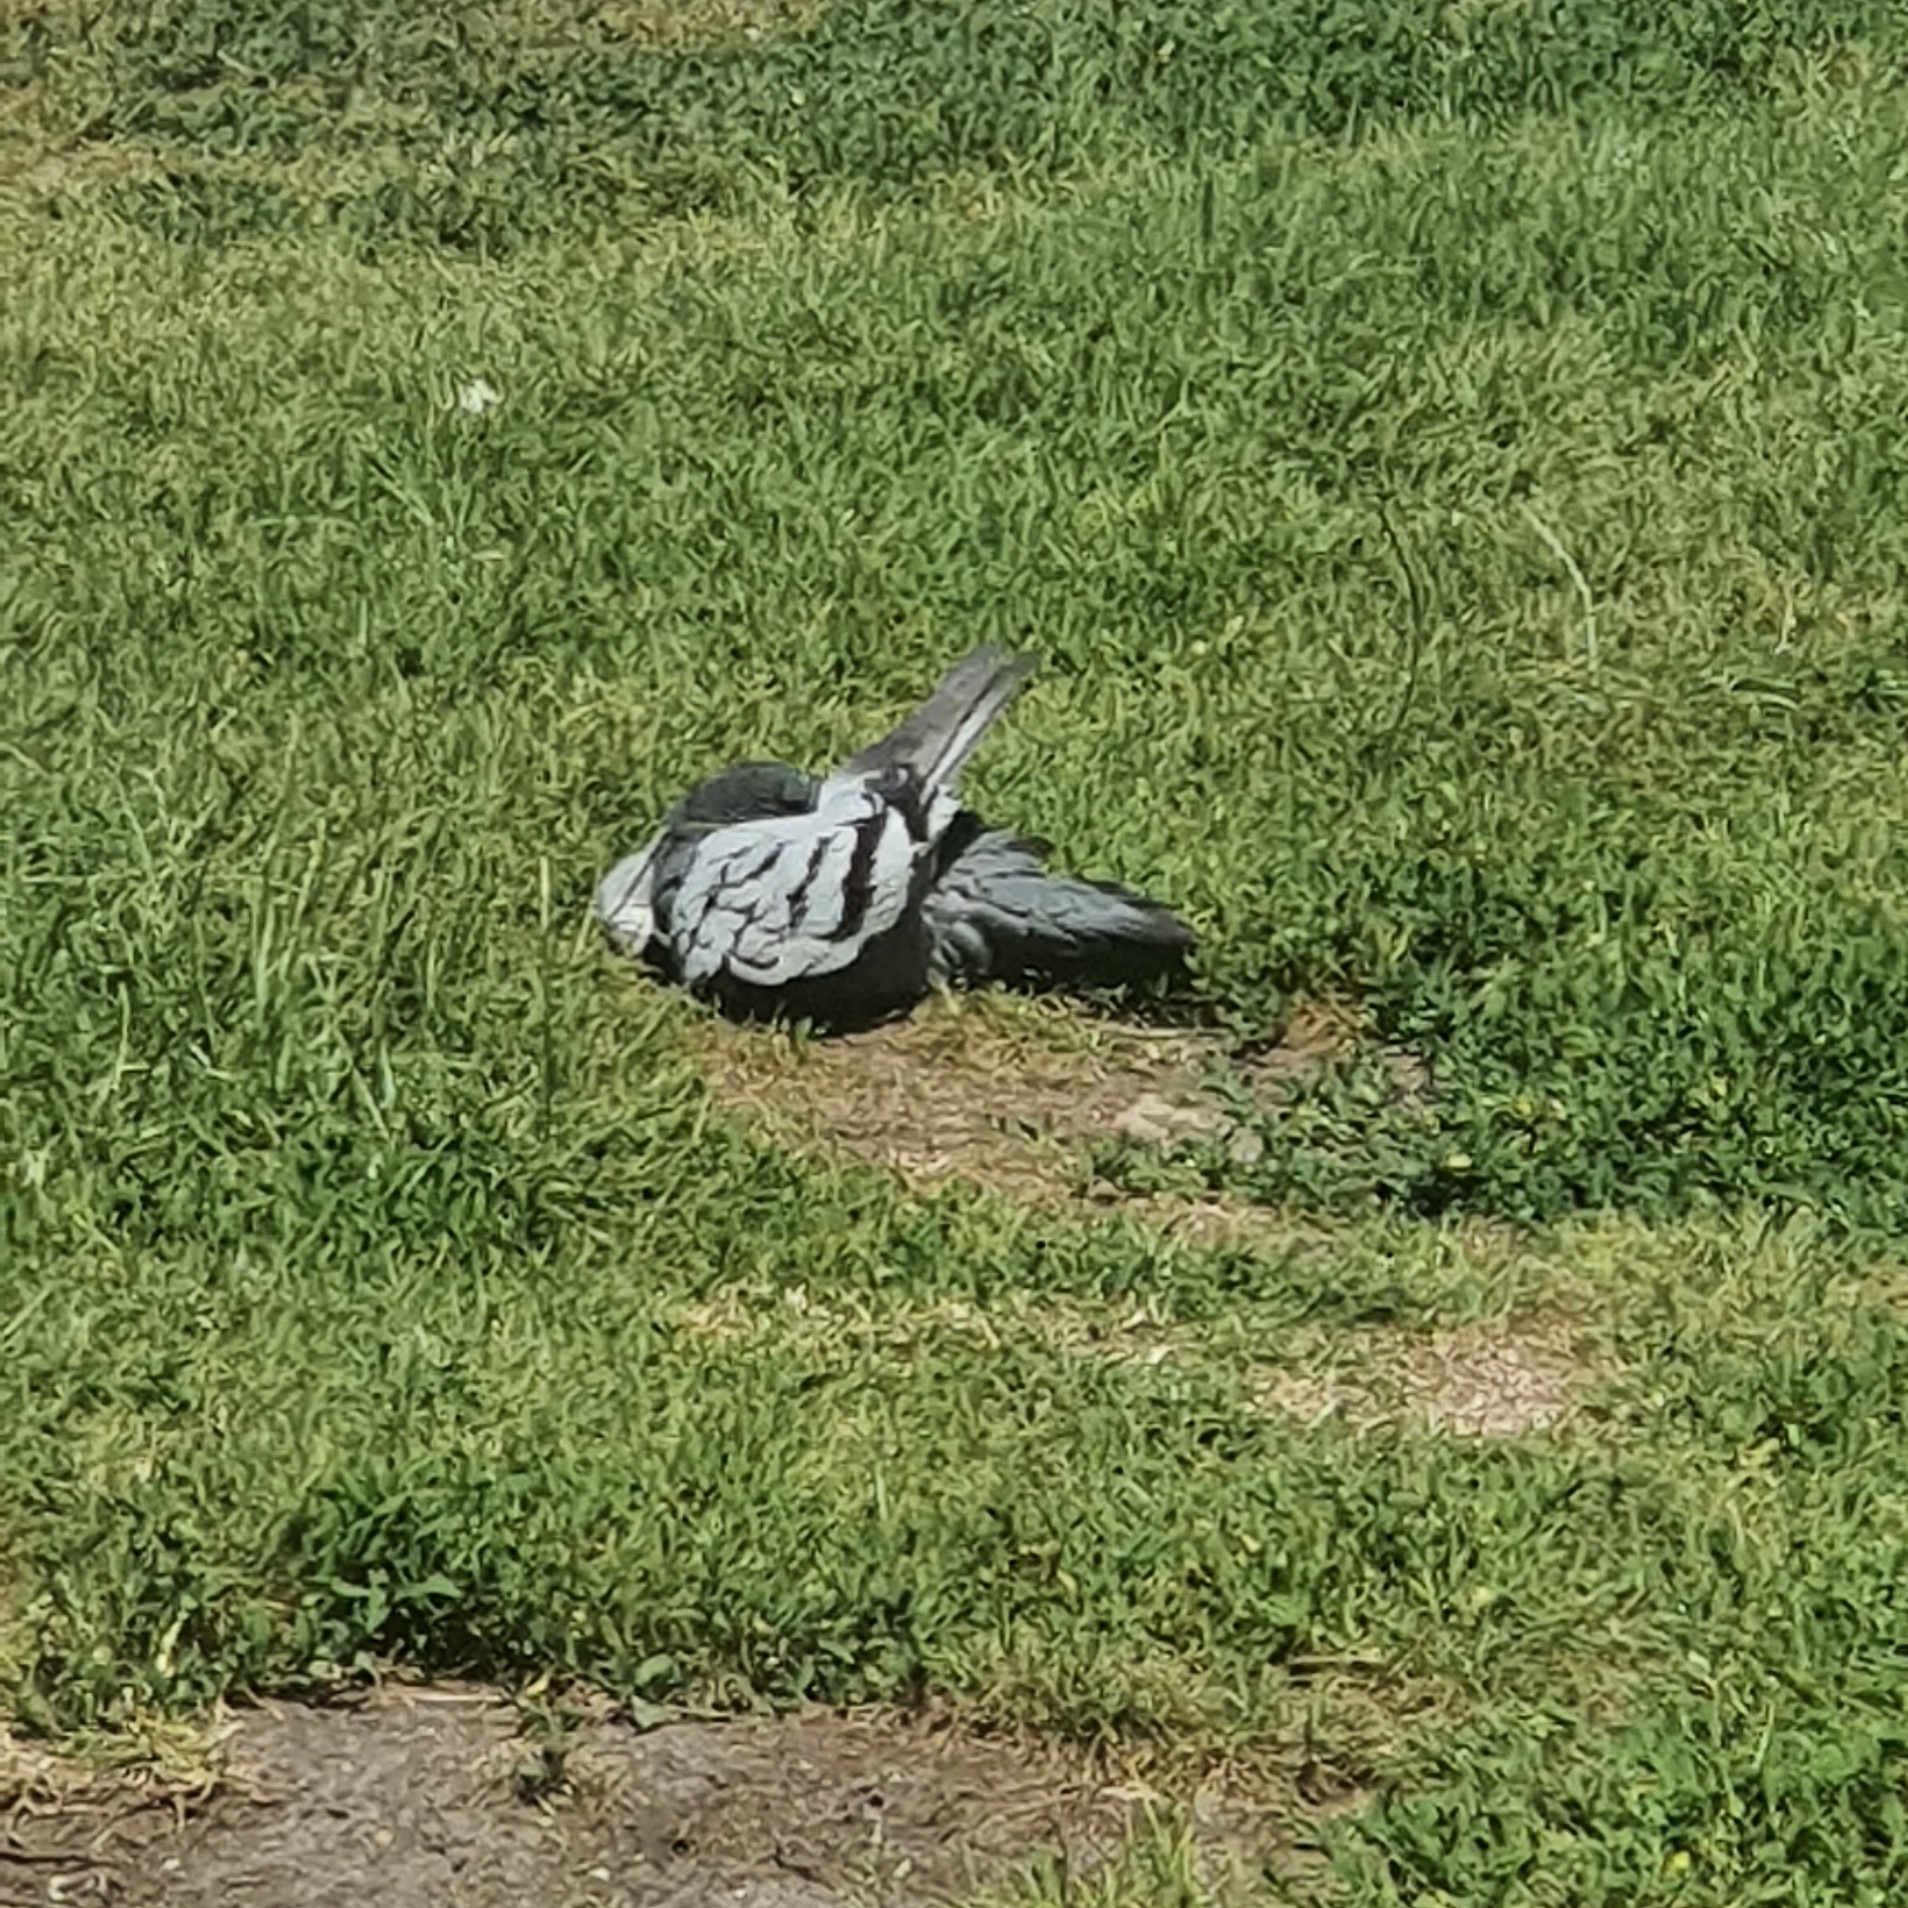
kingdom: Animalia
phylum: Chordata
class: Aves
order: Columbiformes
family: Columbidae
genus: Columba
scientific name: Columba livia
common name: Rock pigeon
